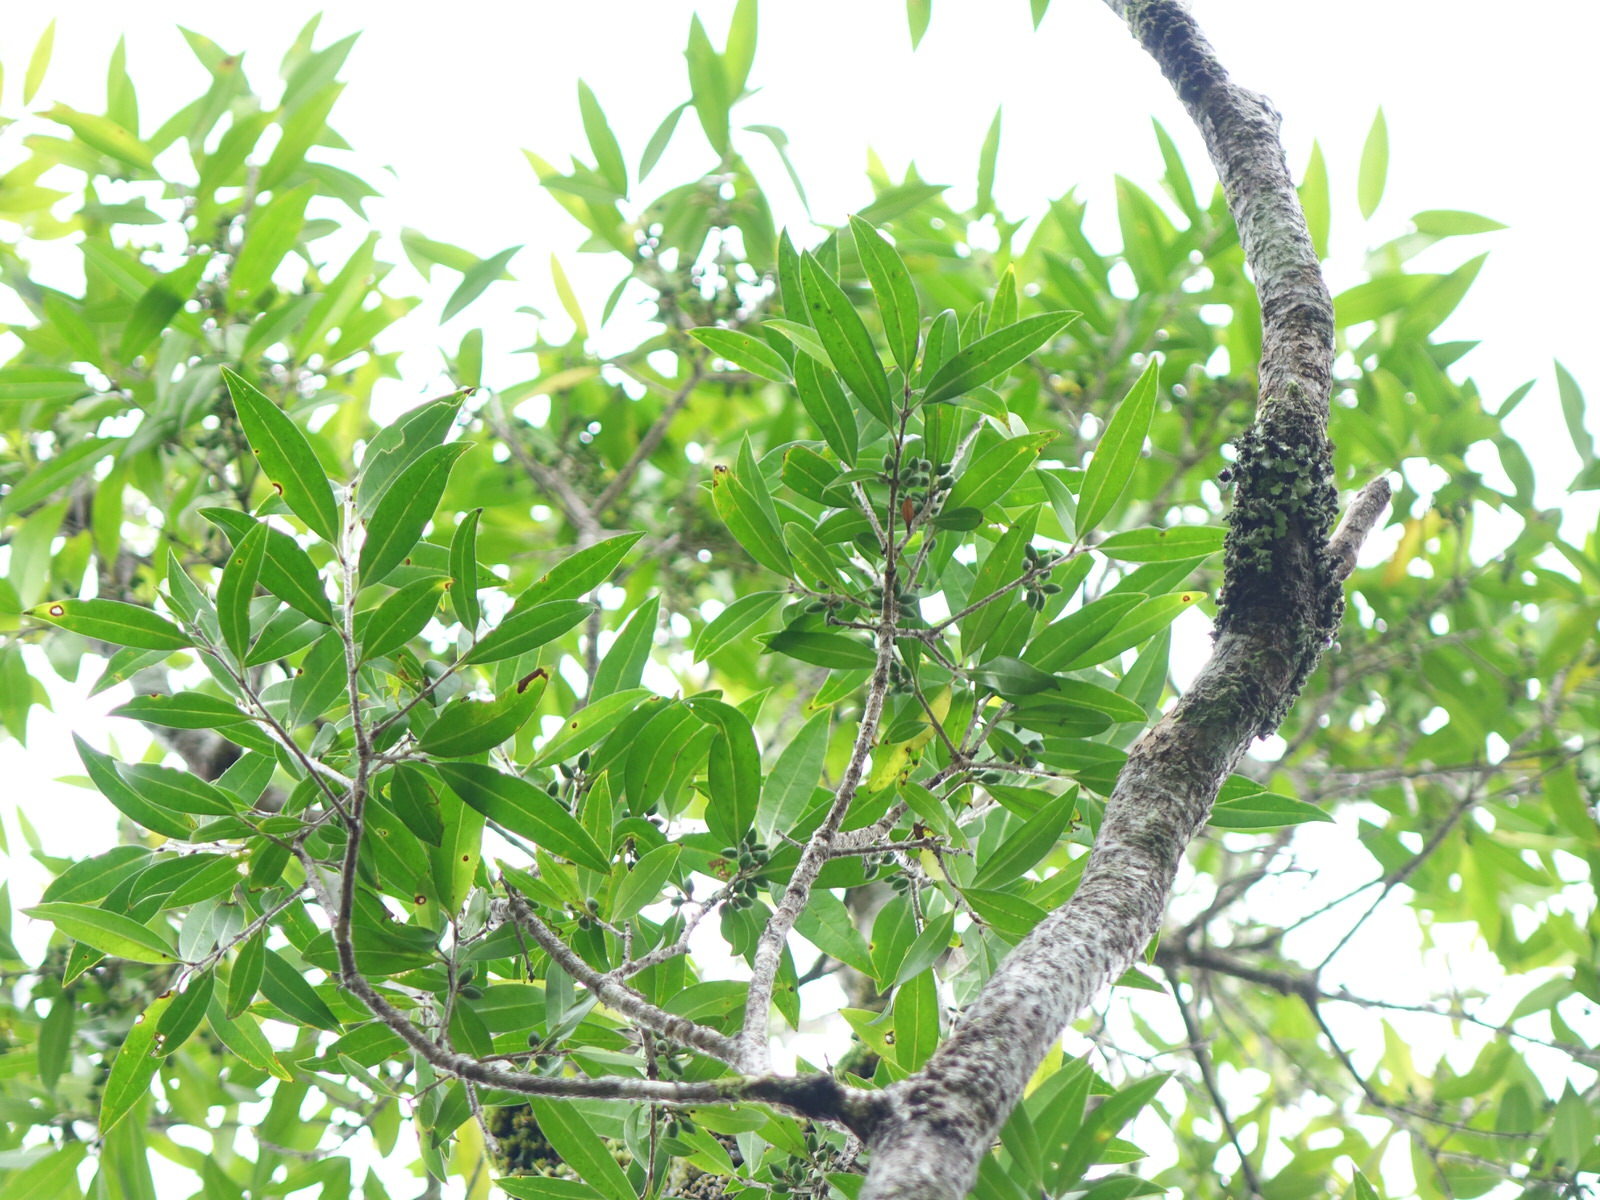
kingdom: Plantae
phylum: Tracheophyta
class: Magnoliopsida
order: Lamiales
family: Oleaceae
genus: Nestegis
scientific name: Nestegis lanceolata
